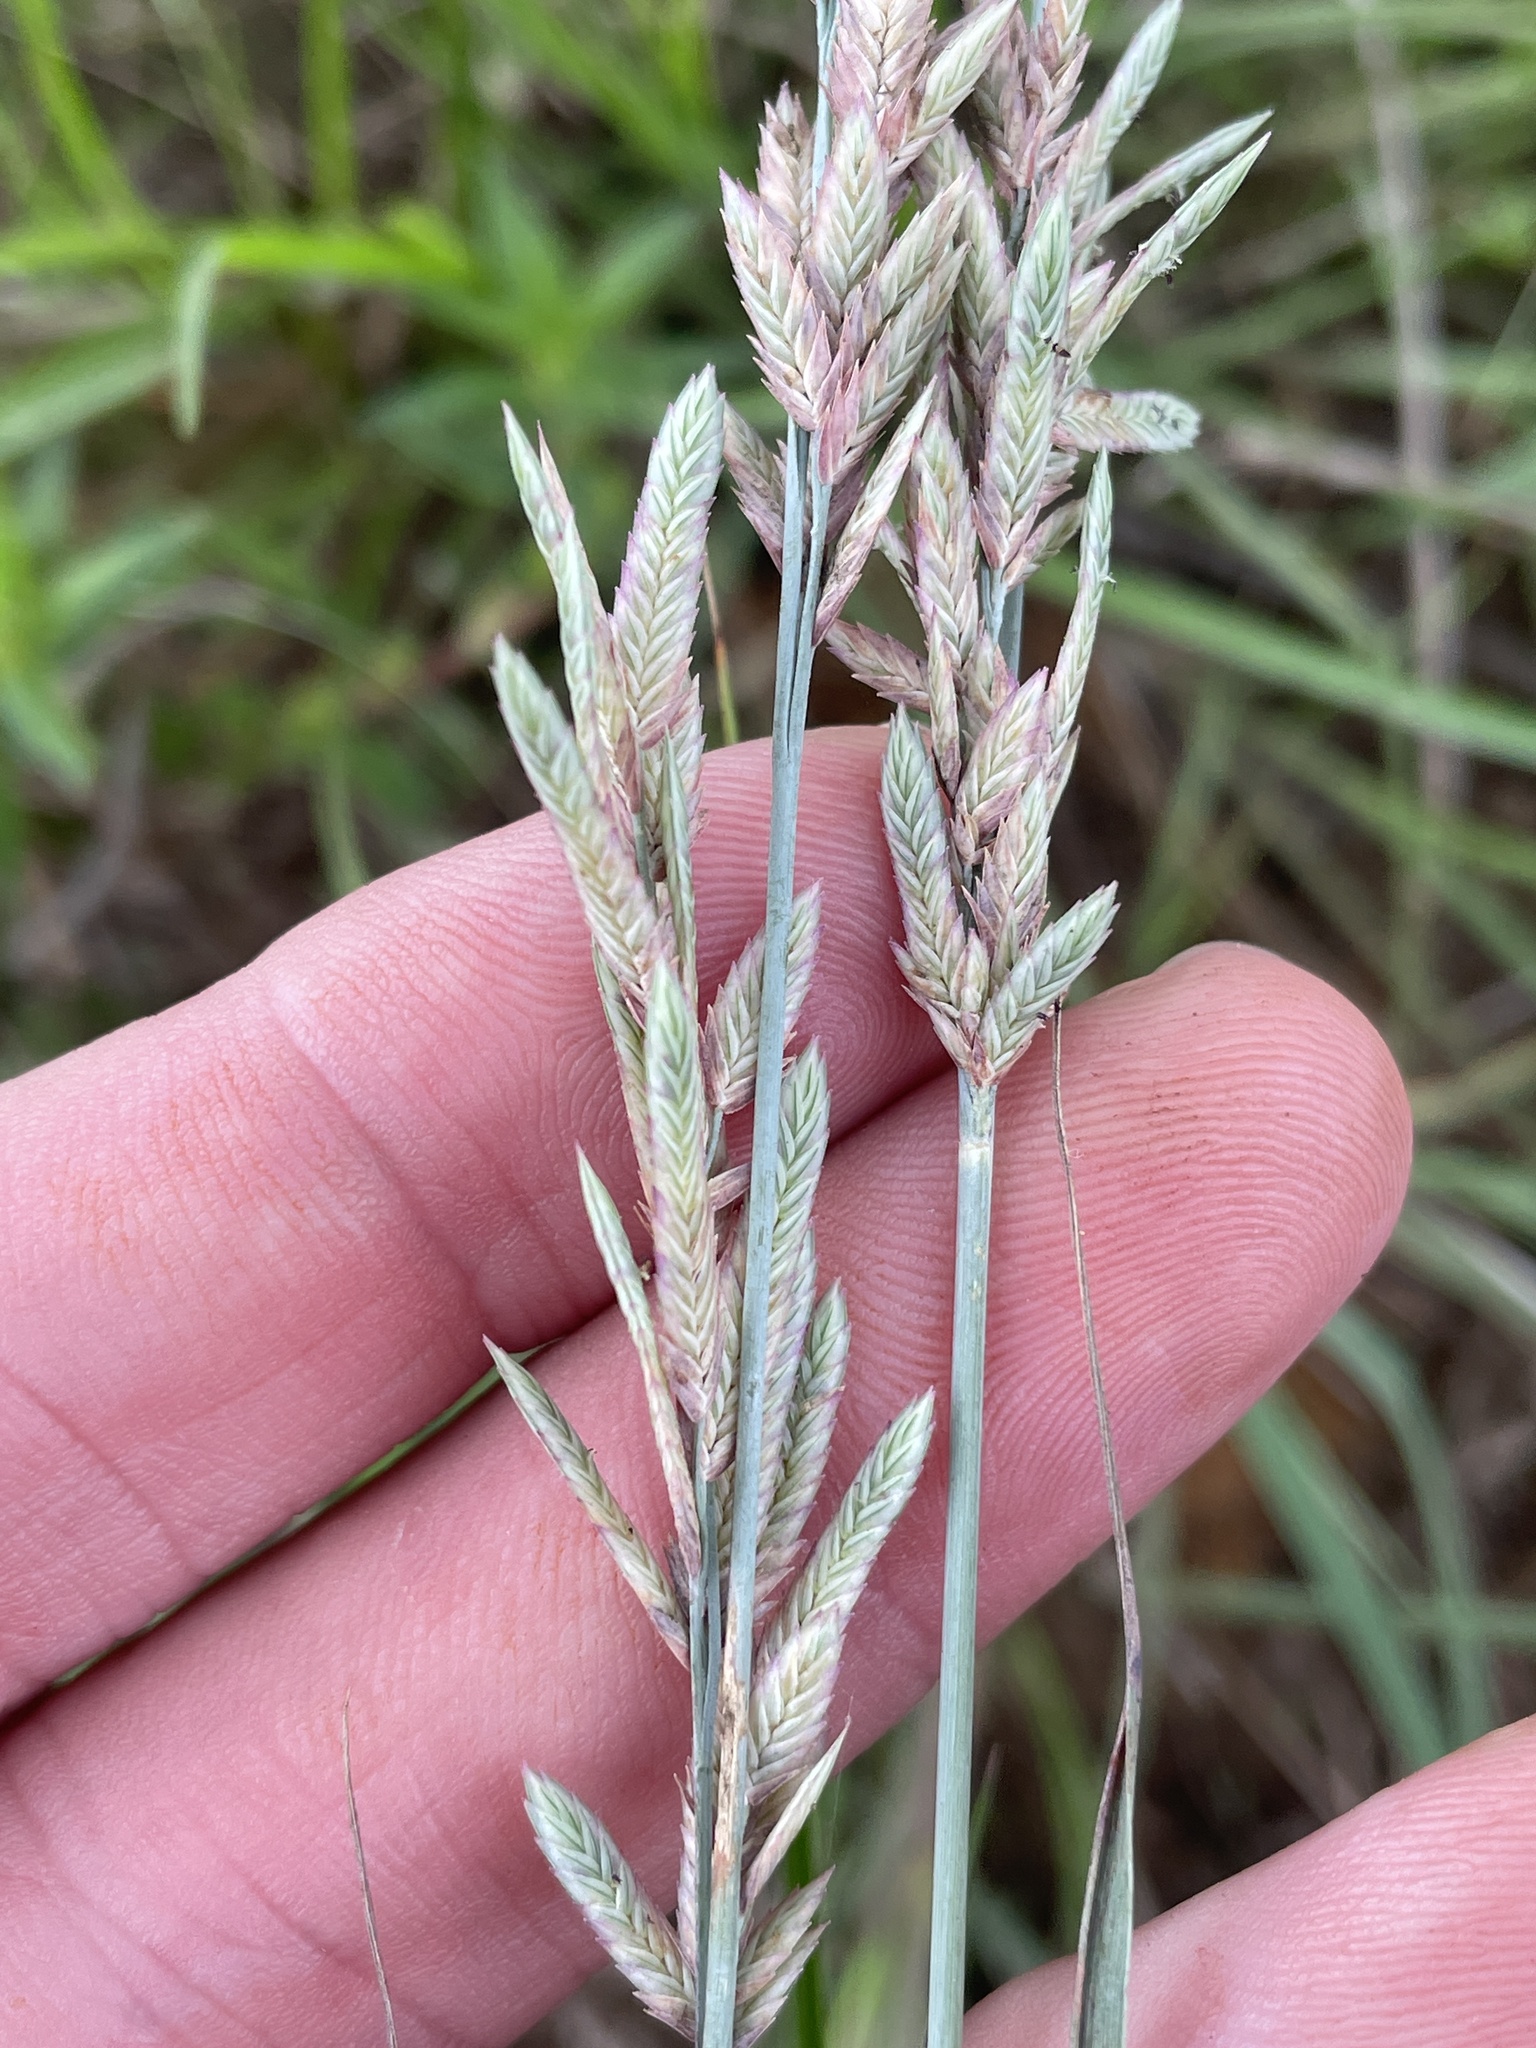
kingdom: Plantae
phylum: Tracheophyta
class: Liliopsida
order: Poales
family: Poaceae
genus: Eragrostis
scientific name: Eragrostis secundiflora
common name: Red love grass
